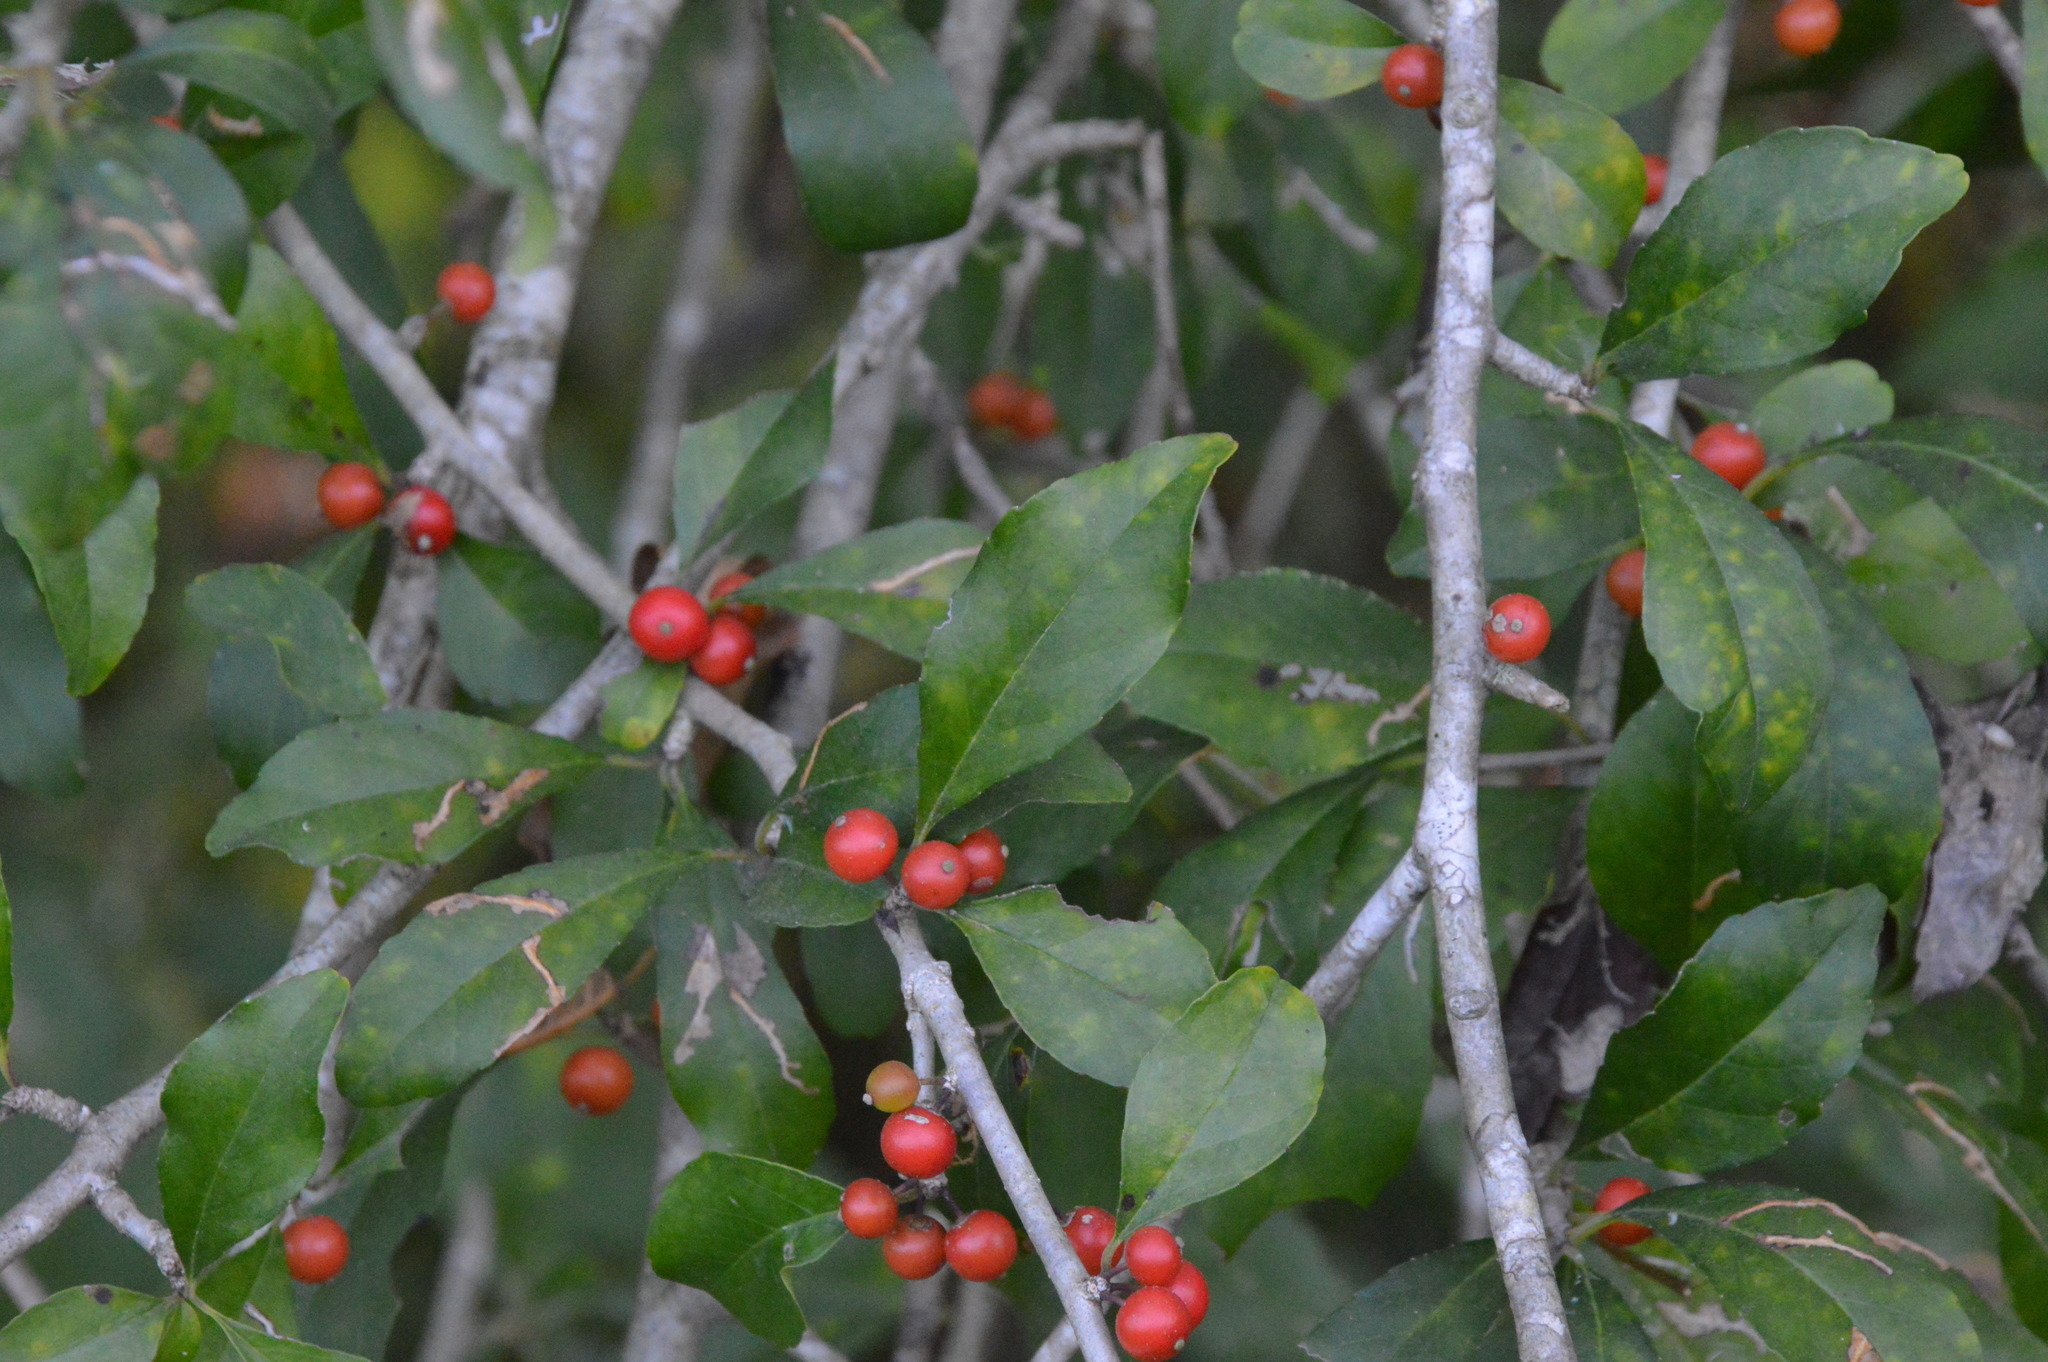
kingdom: Plantae
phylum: Tracheophyta
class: Magnoliopsida
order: Aquifoliales
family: Aquifoliaceae
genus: Ilex
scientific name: Ilex decidua
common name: Possum-haw
